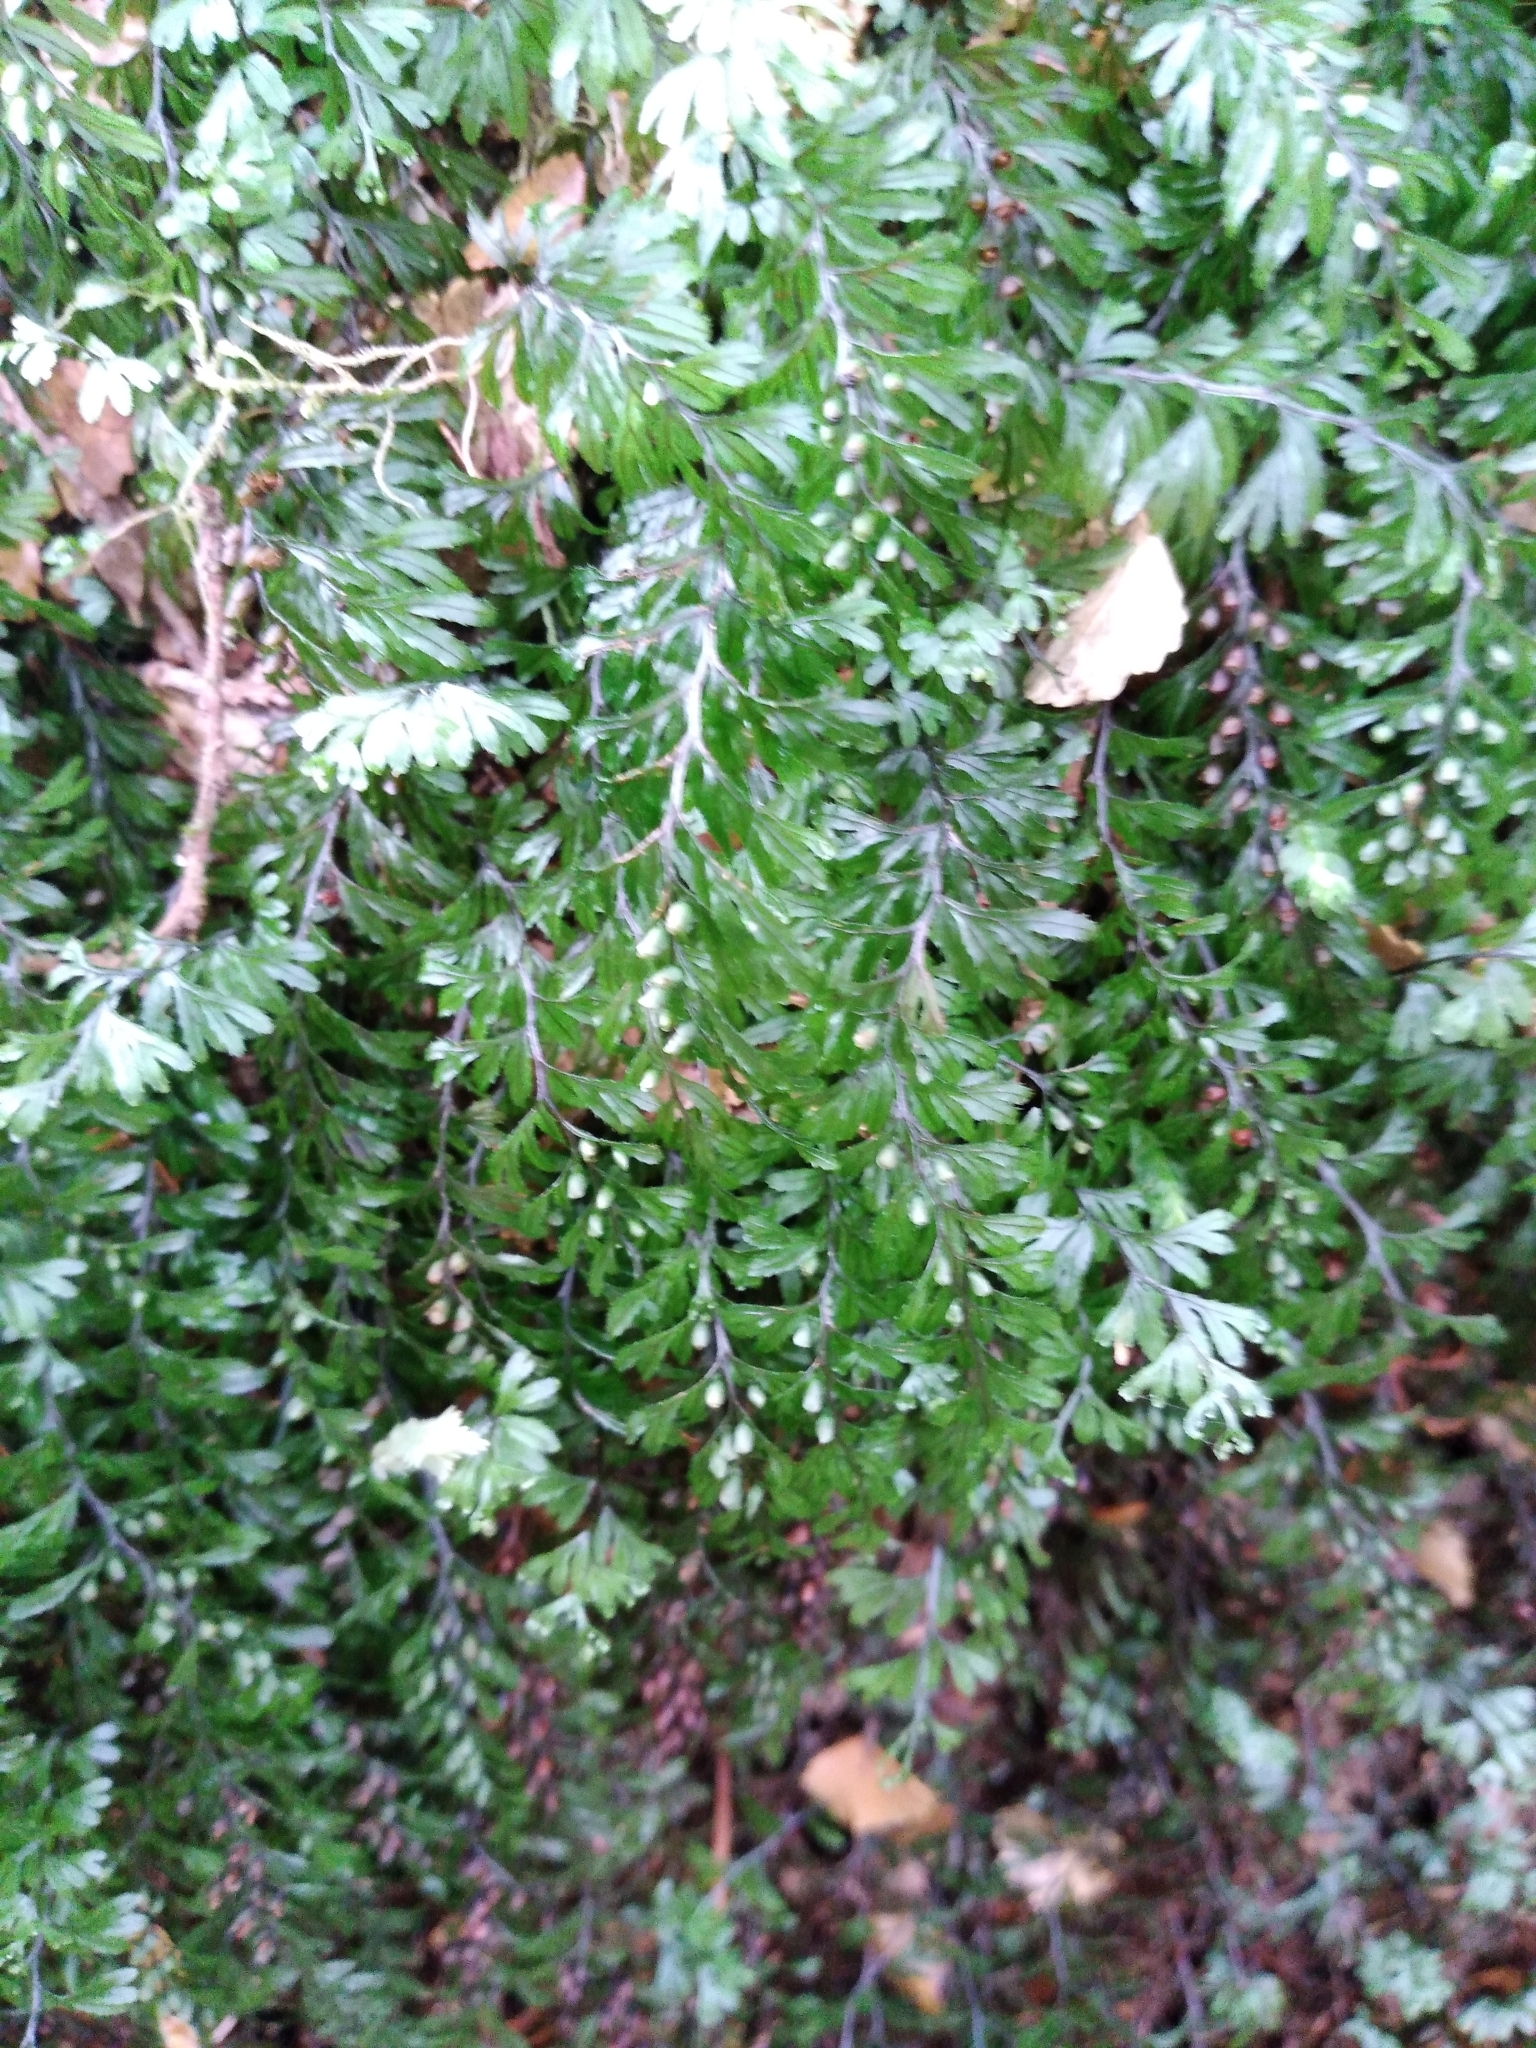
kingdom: Plantae
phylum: Tracheophyta
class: Polypodiopsida
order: Hymenophyllales
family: Hymenophyllaceae
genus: Hymenophyllum
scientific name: Hymenophyllum peltatum
